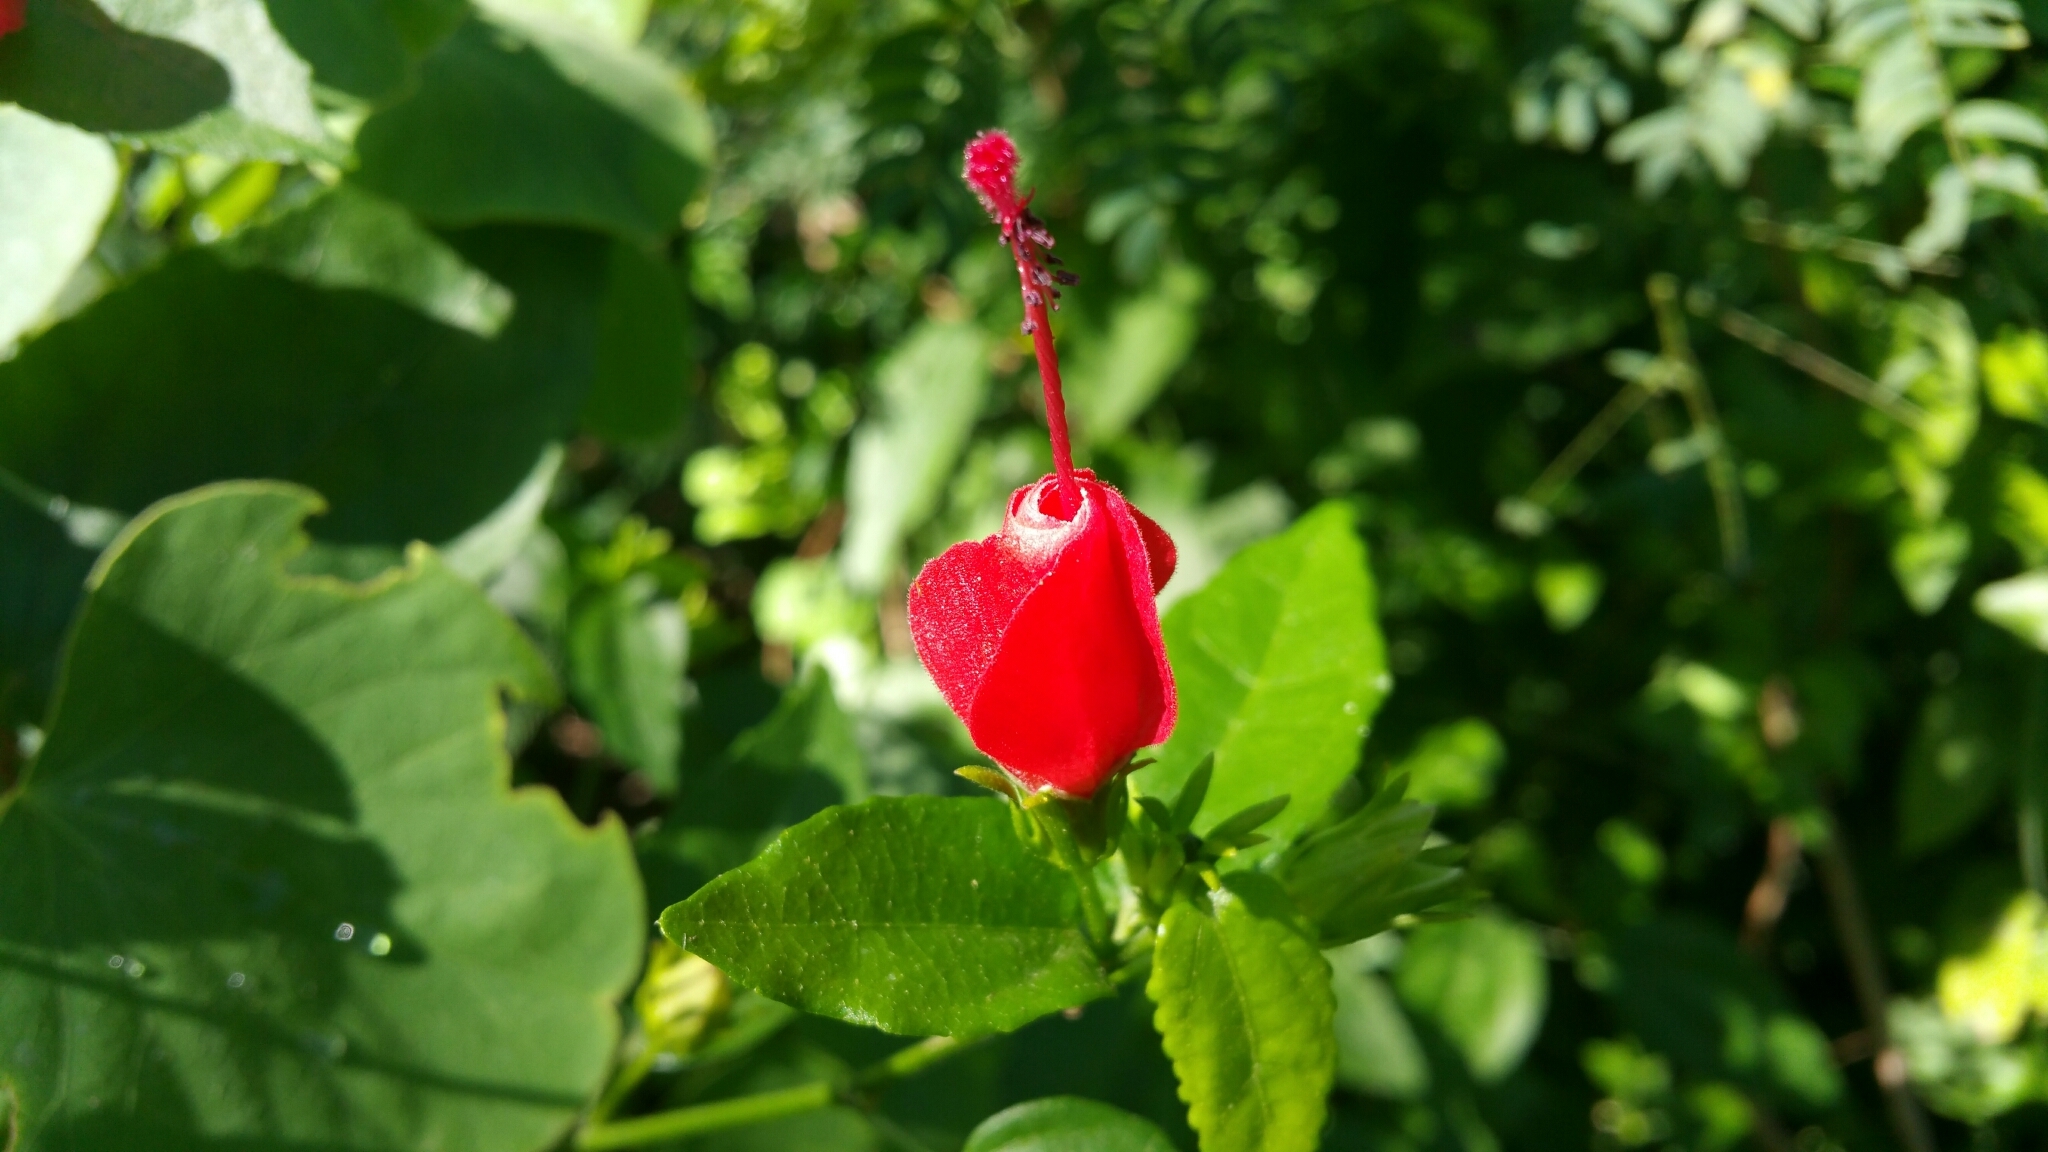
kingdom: Plantae
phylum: Tracheophyta
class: Magnoliopsida
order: Malvales
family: Malvaceae
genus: Malvaviscus
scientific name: Malvaviscus arboreus
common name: Wax mallow
